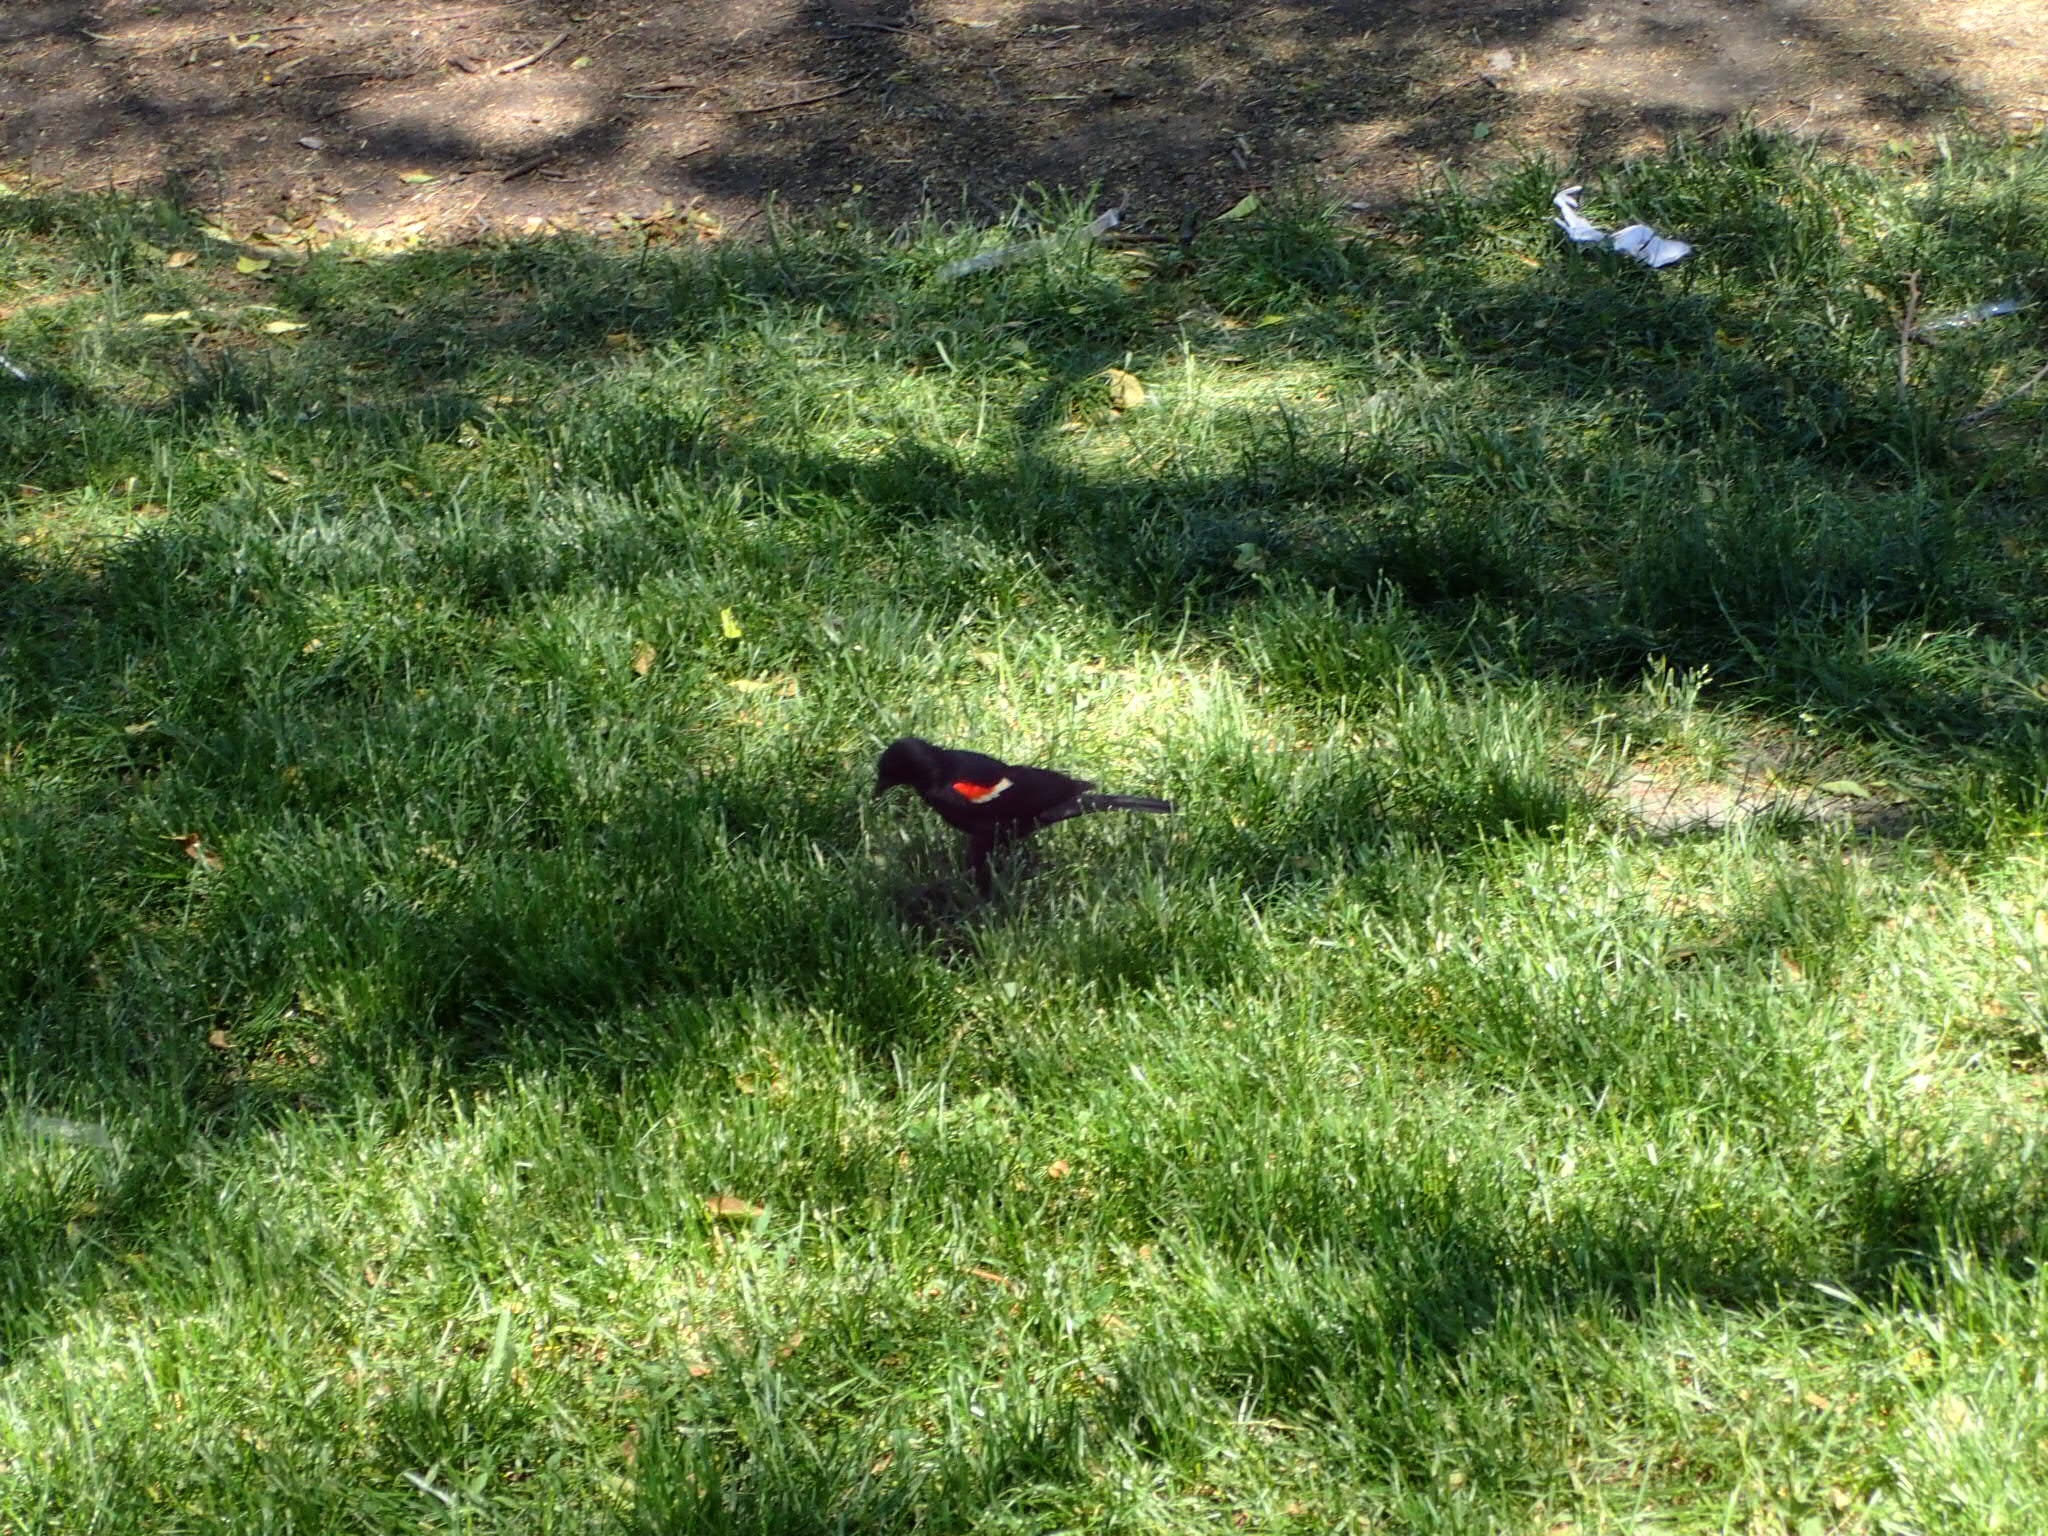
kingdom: Animalia
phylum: Chordata
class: Aves
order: Passeriformes
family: Icteridae
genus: Agelaius
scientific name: Agelaius phoeniceus
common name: Red-winged blackbird
